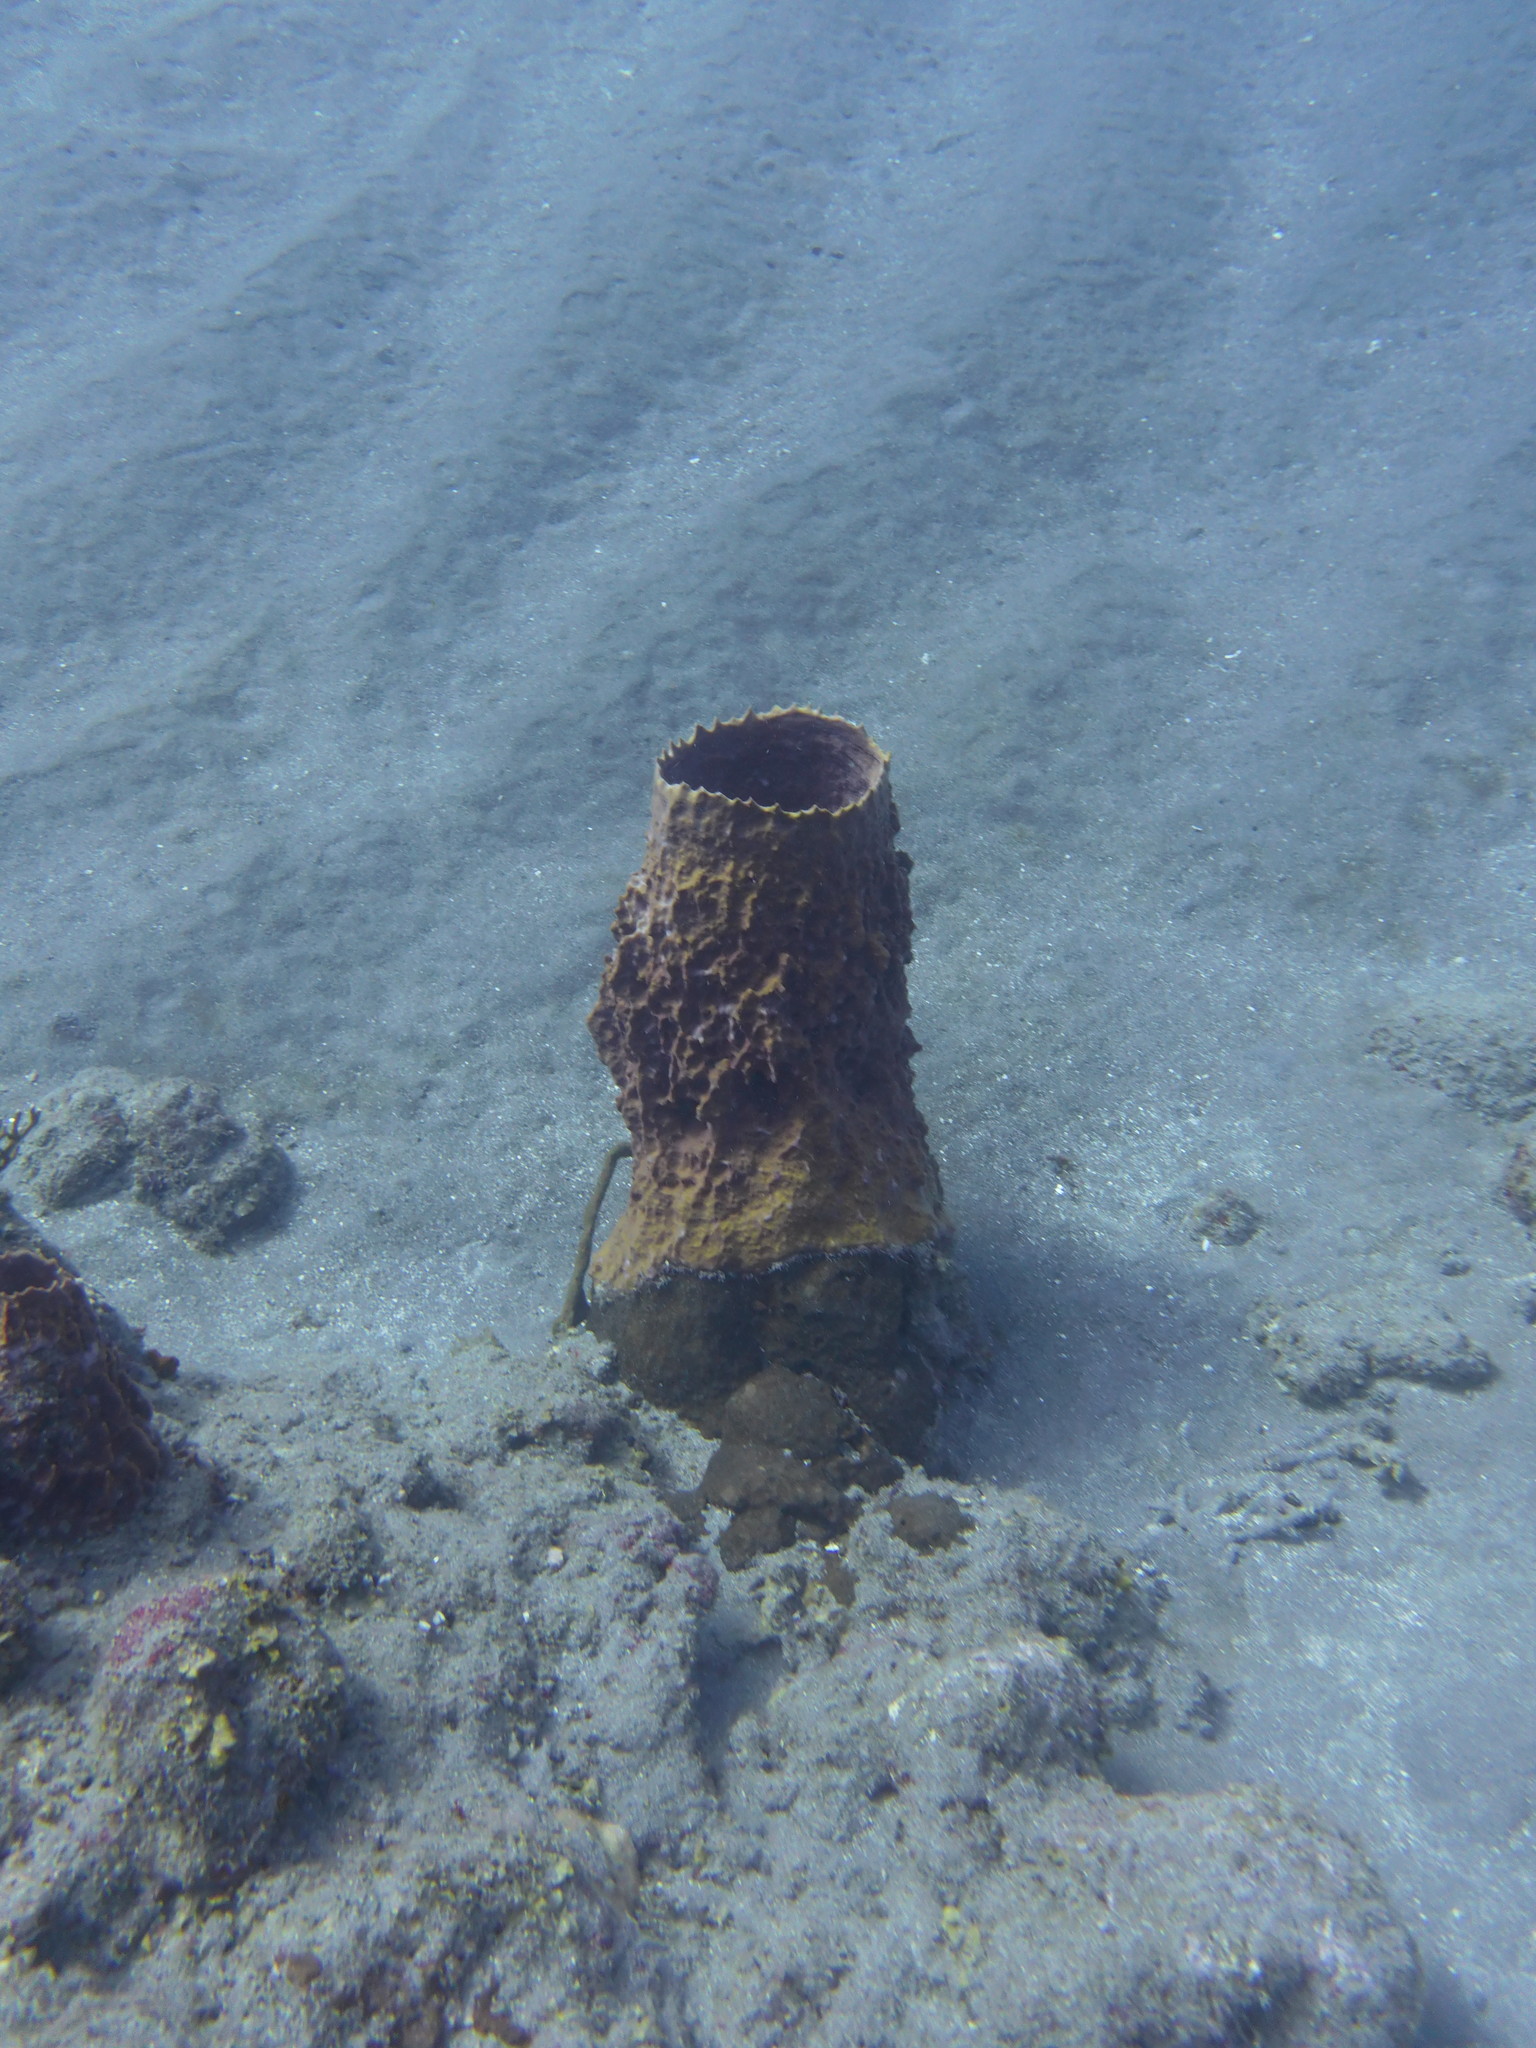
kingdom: Animalia
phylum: Porifera
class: Demospongiae
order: Haplosclerida
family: Petrosiidae
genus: Xestospongia
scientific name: Xestospongia muta
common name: Giant barrel sponge
